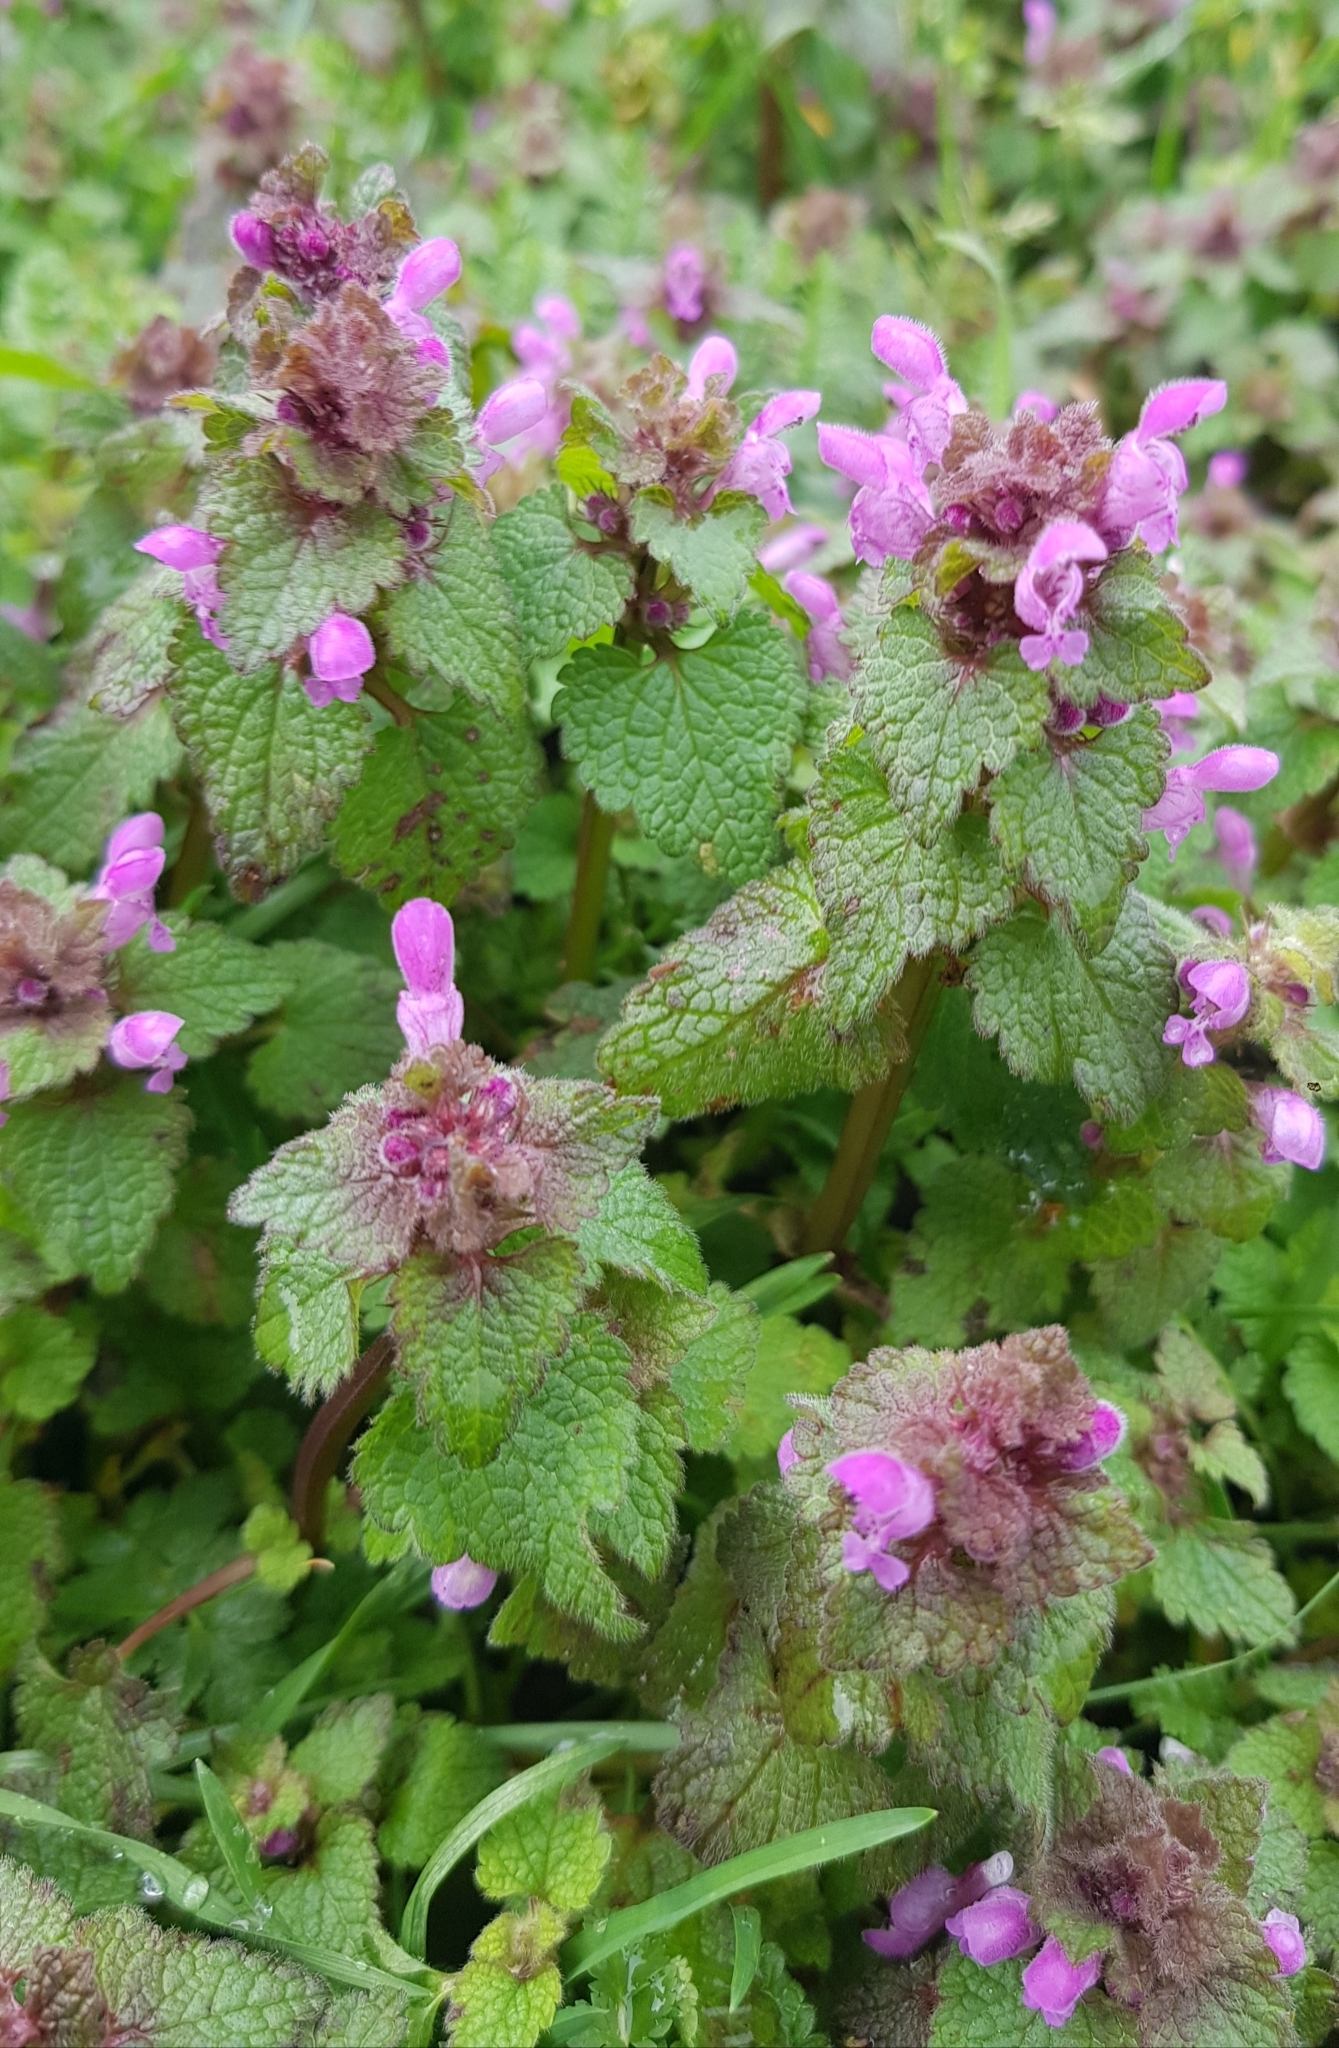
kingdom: Plantae
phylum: Tracheophyta
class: Magnoliopsida
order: Lamiales
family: Lamiaceae
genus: Lamium
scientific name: Lamium purpureum
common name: Red dead-nettle
